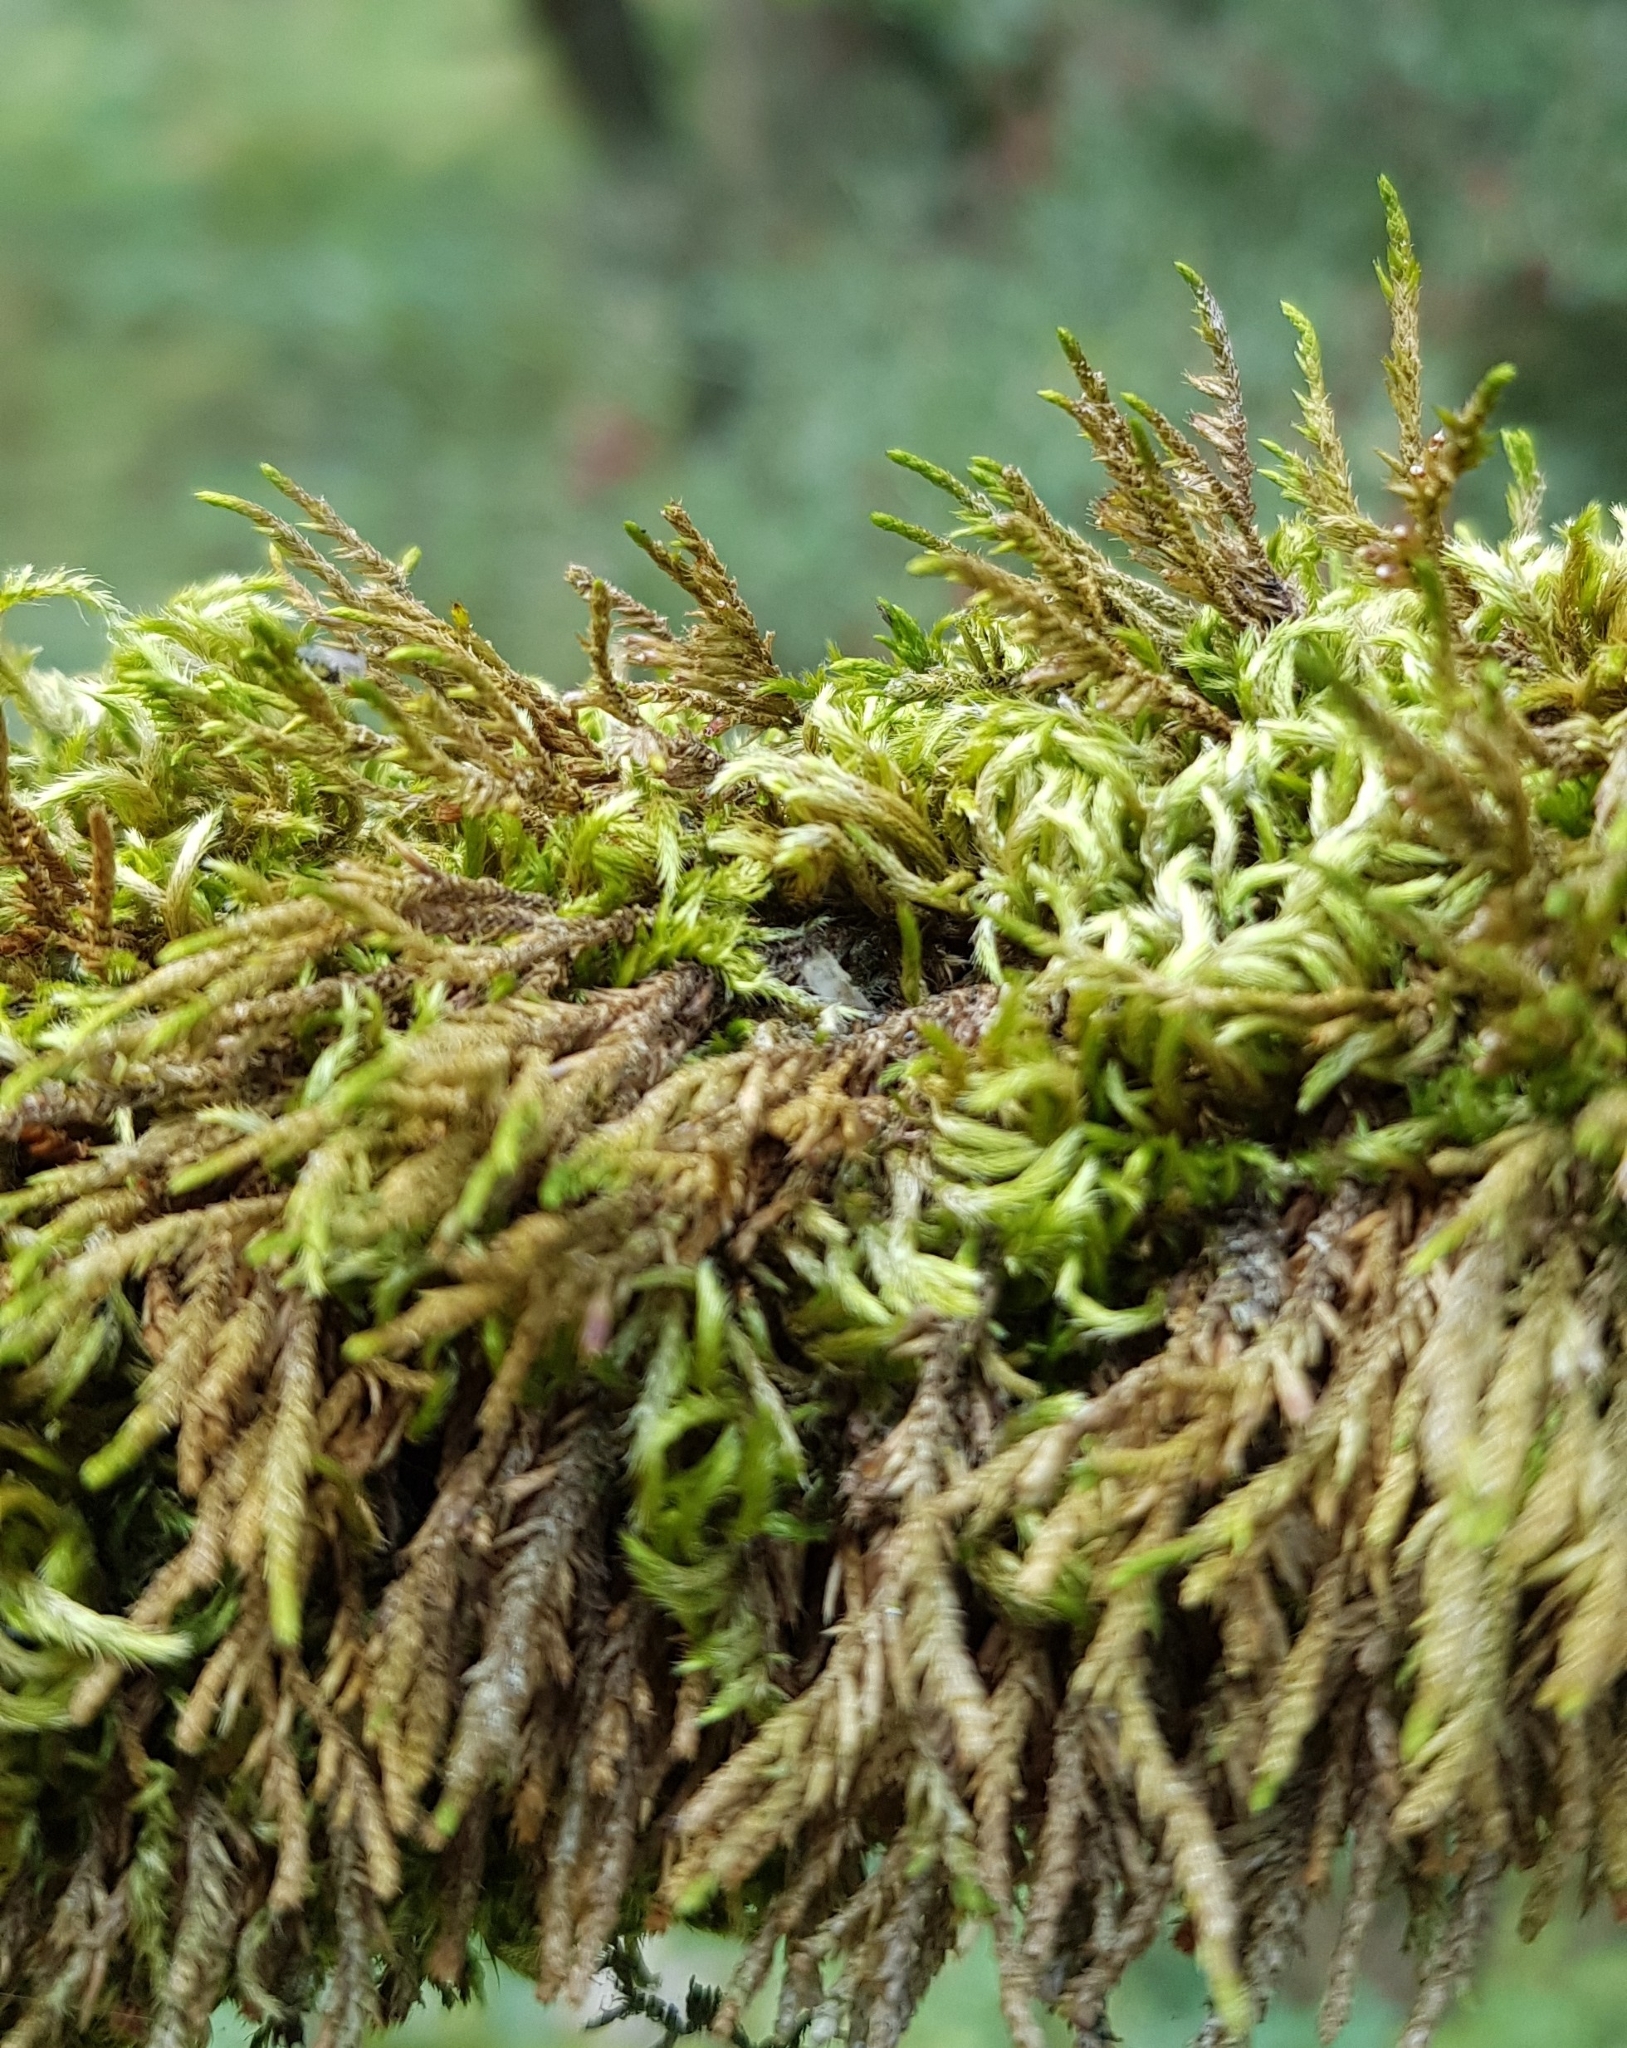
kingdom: Plantae
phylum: Bryophyta
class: Bryopsida
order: Hypnales
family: Cryphaeaceae
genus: Cryphaea
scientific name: Cryphaea heteromalla
